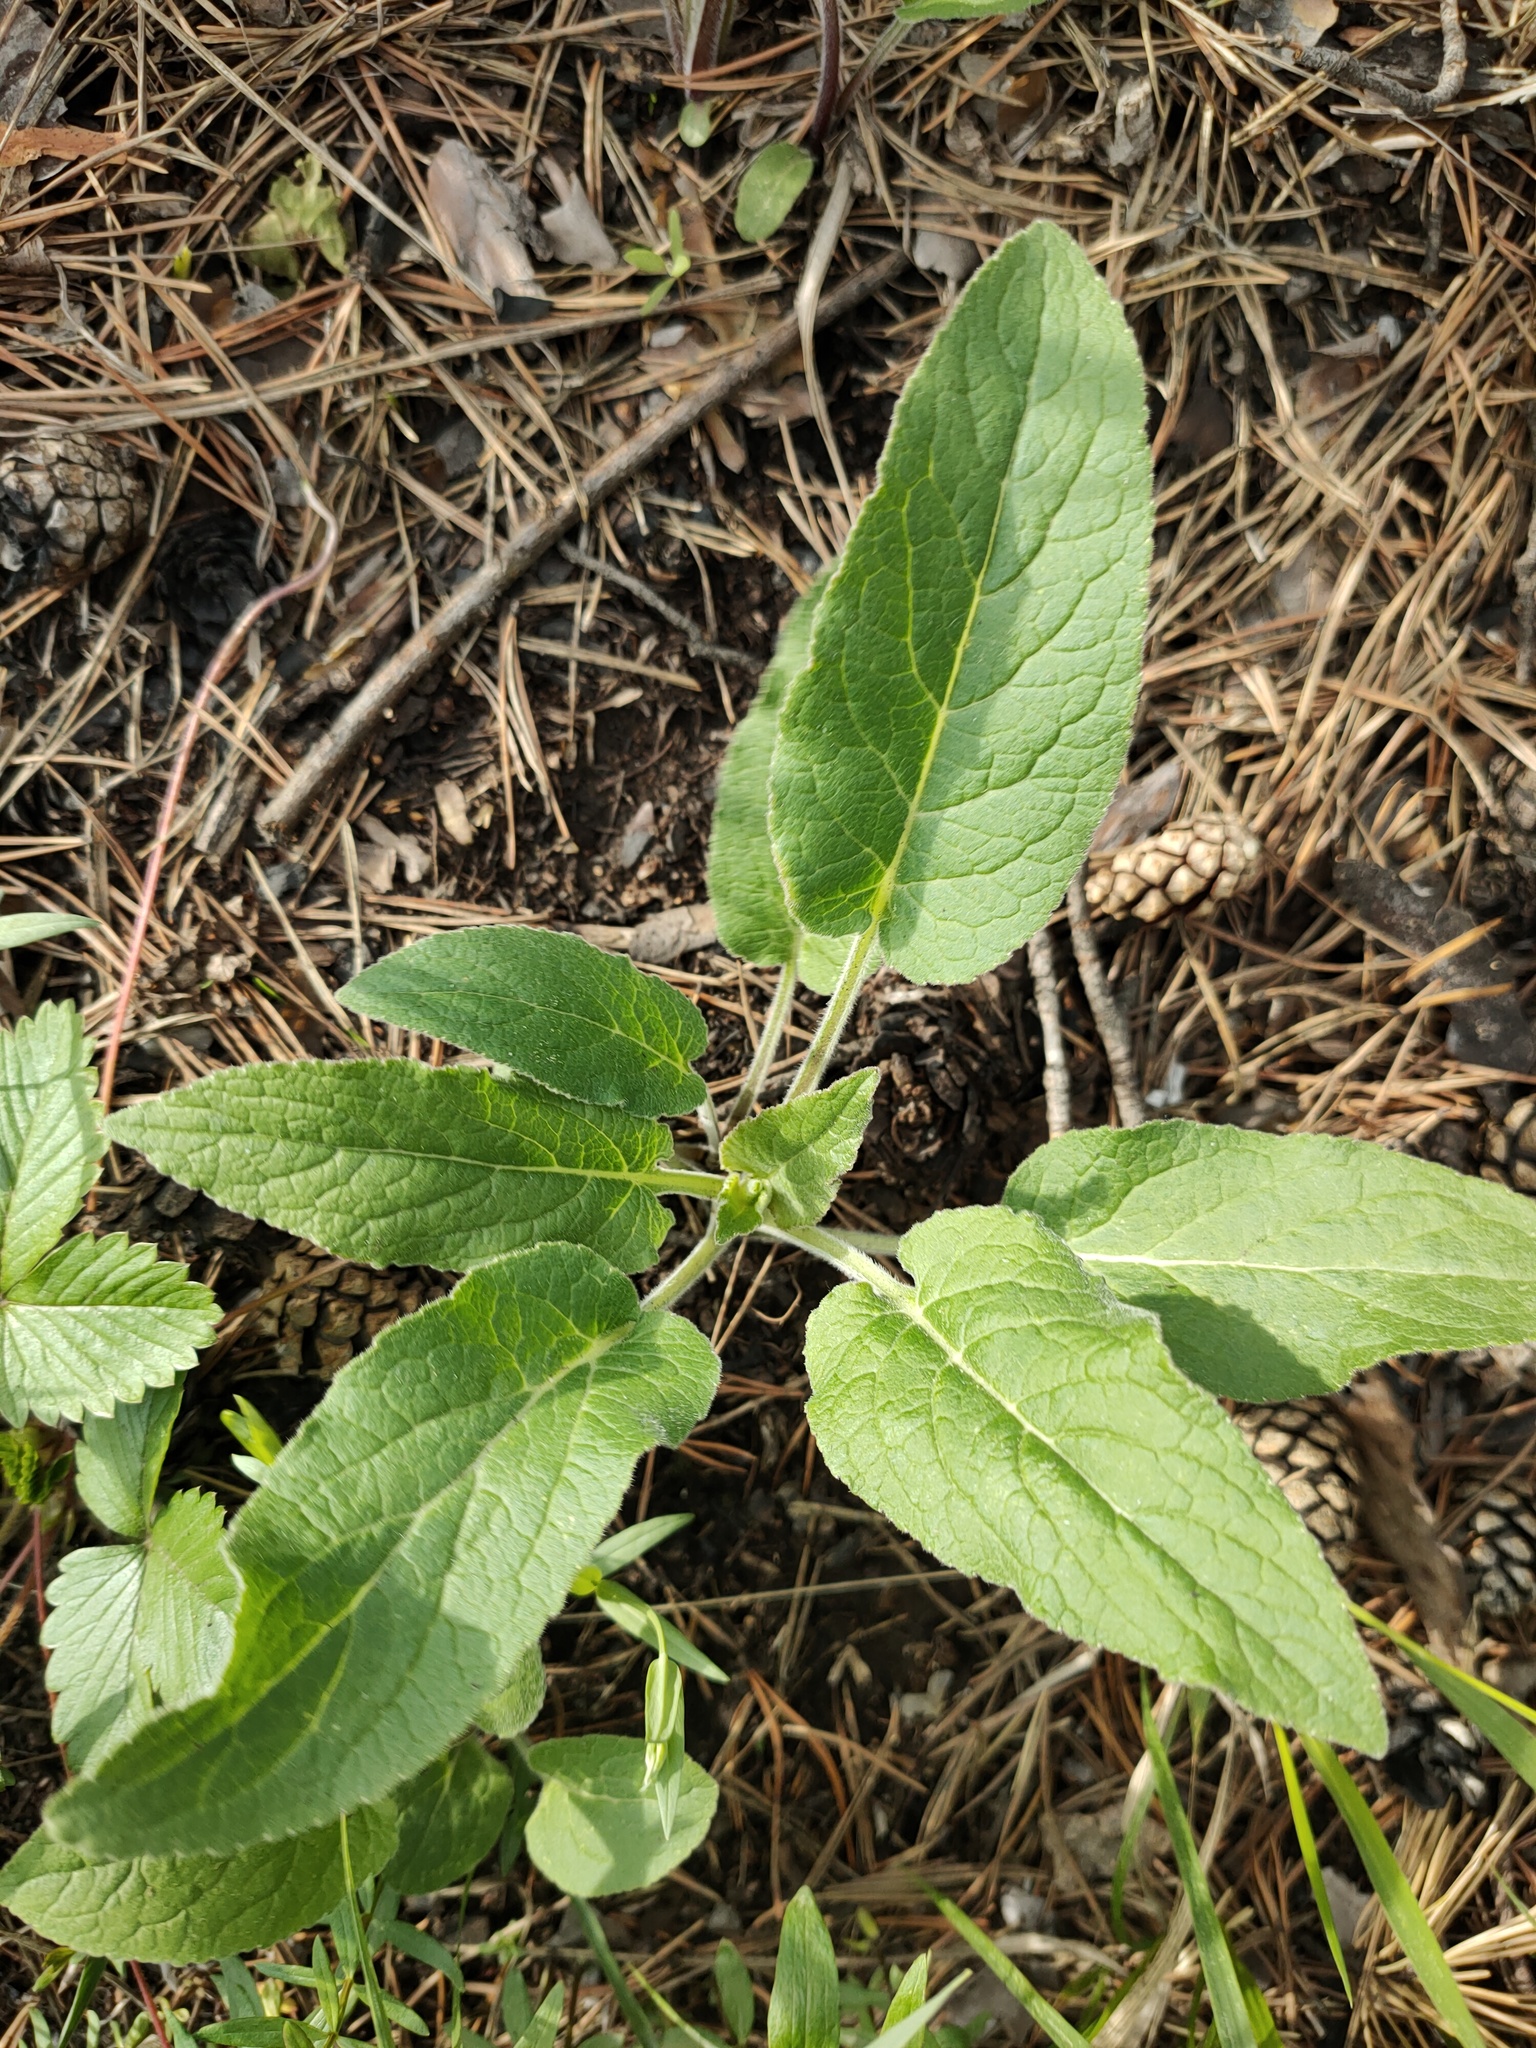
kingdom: Plantae
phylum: Tracheophyta
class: Magnoliopsida
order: Lamiales
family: Scrophulariaceae
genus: Verbascum
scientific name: Verbascum nigrum
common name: Dark mullein
